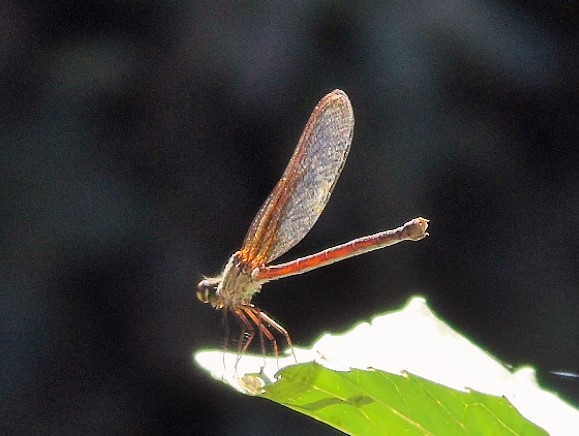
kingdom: Animalia
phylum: Arthropoda
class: Insecta
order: Odonata
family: Calopterygidae
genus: Hetaerina
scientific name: Hetaerina
